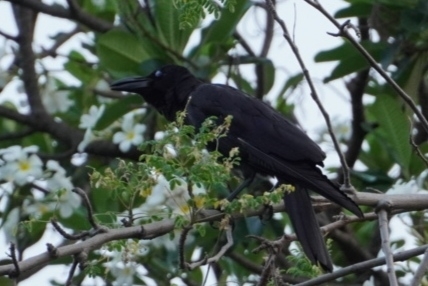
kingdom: Animalia
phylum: Chordata
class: Aves
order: Passeriformes
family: Corvidae
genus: Corvus
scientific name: Corvus macrorhynchos
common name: Large-billed crow
